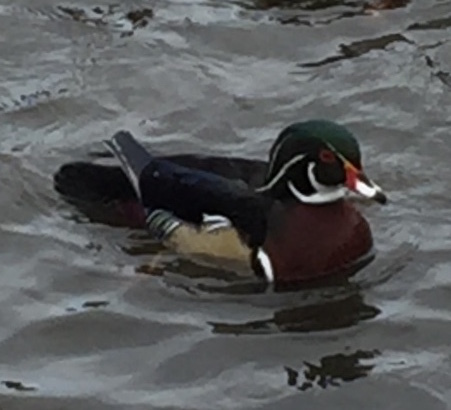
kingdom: Animalia
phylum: Chordata
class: Aves
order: Anseriformes
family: Anatidae
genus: Aix
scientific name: Aix sponsa
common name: Wood duck
